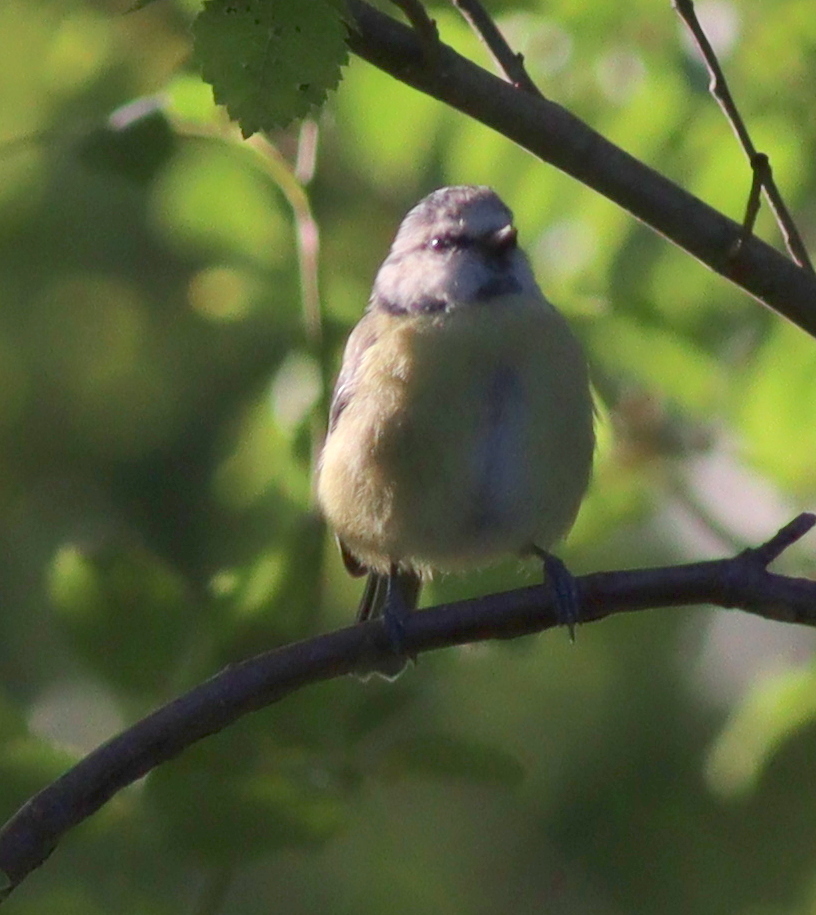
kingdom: Animalia
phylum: Chordata
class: Aves
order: Passeriformes
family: Paridae
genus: Cyanistes
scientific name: Cyanistes caeruleus
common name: Eurasian blue tit
